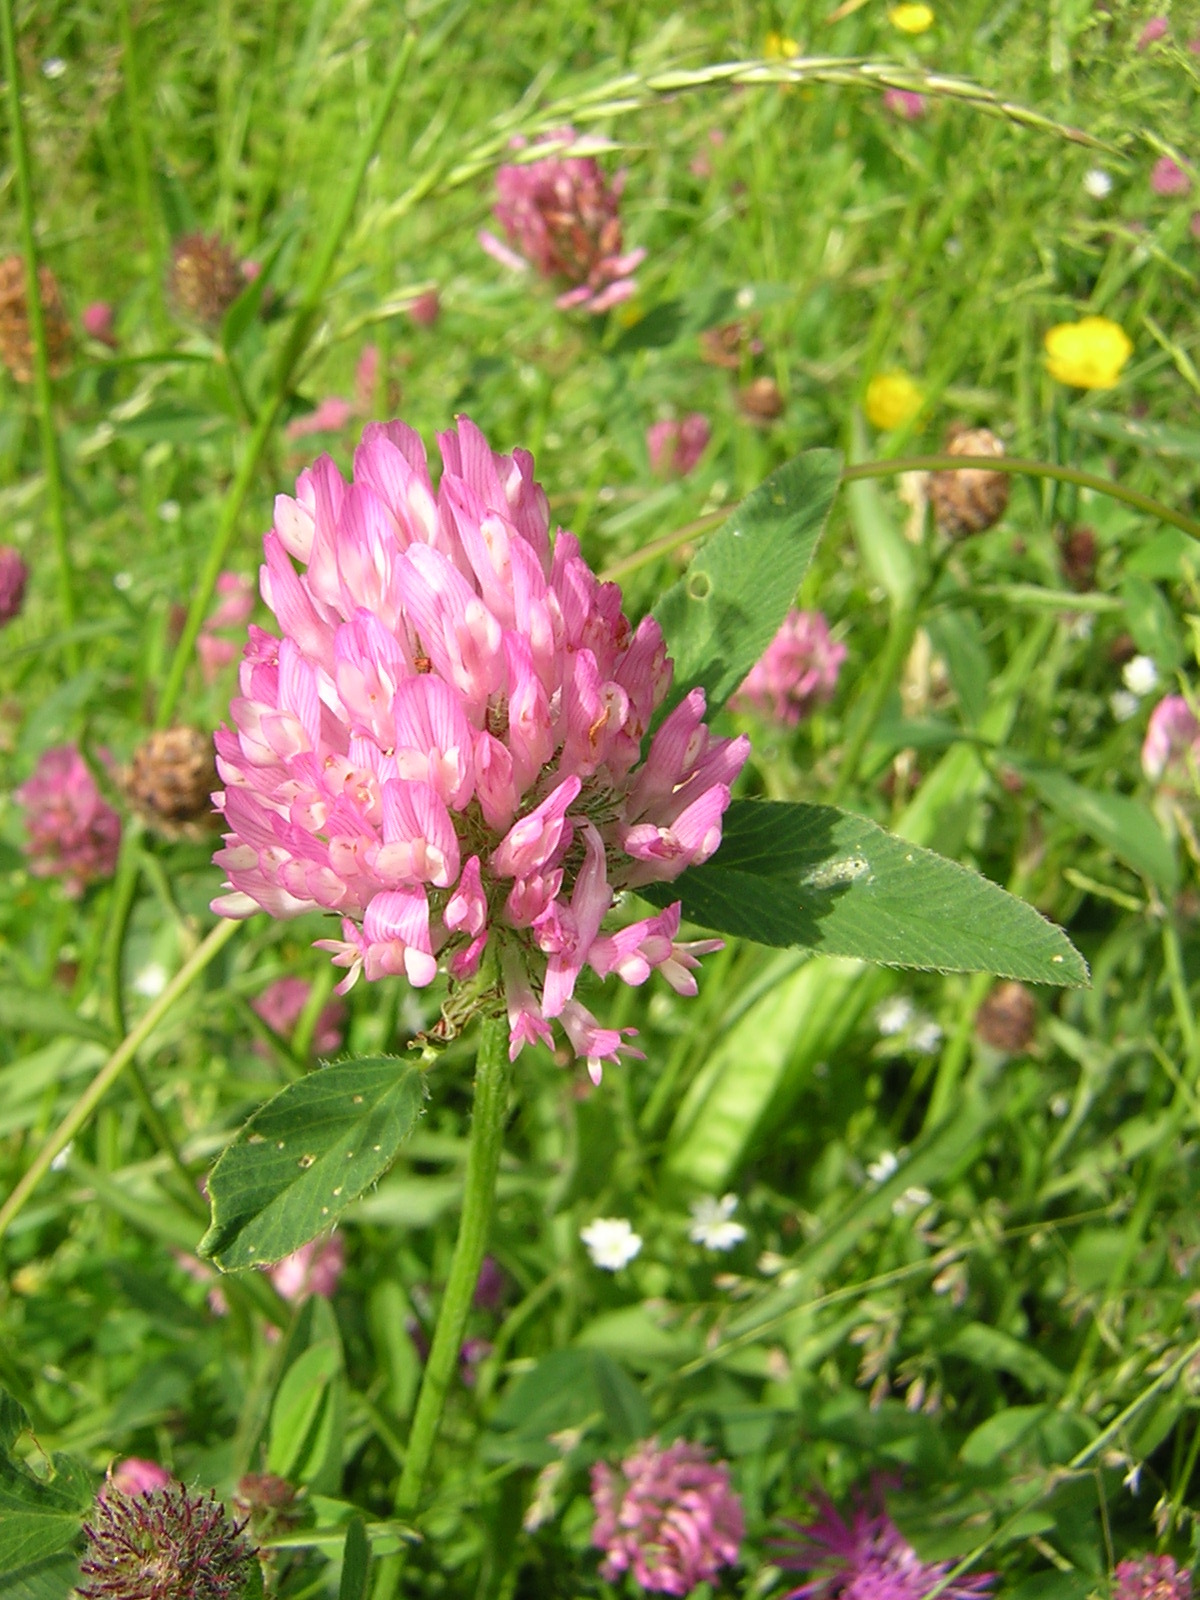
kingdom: Plantae
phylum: Tracheophyta
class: Magnoliopsida
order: Fabales
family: Fabaceae
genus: Trifolium
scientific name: Trifolium pratense
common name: Red clover
